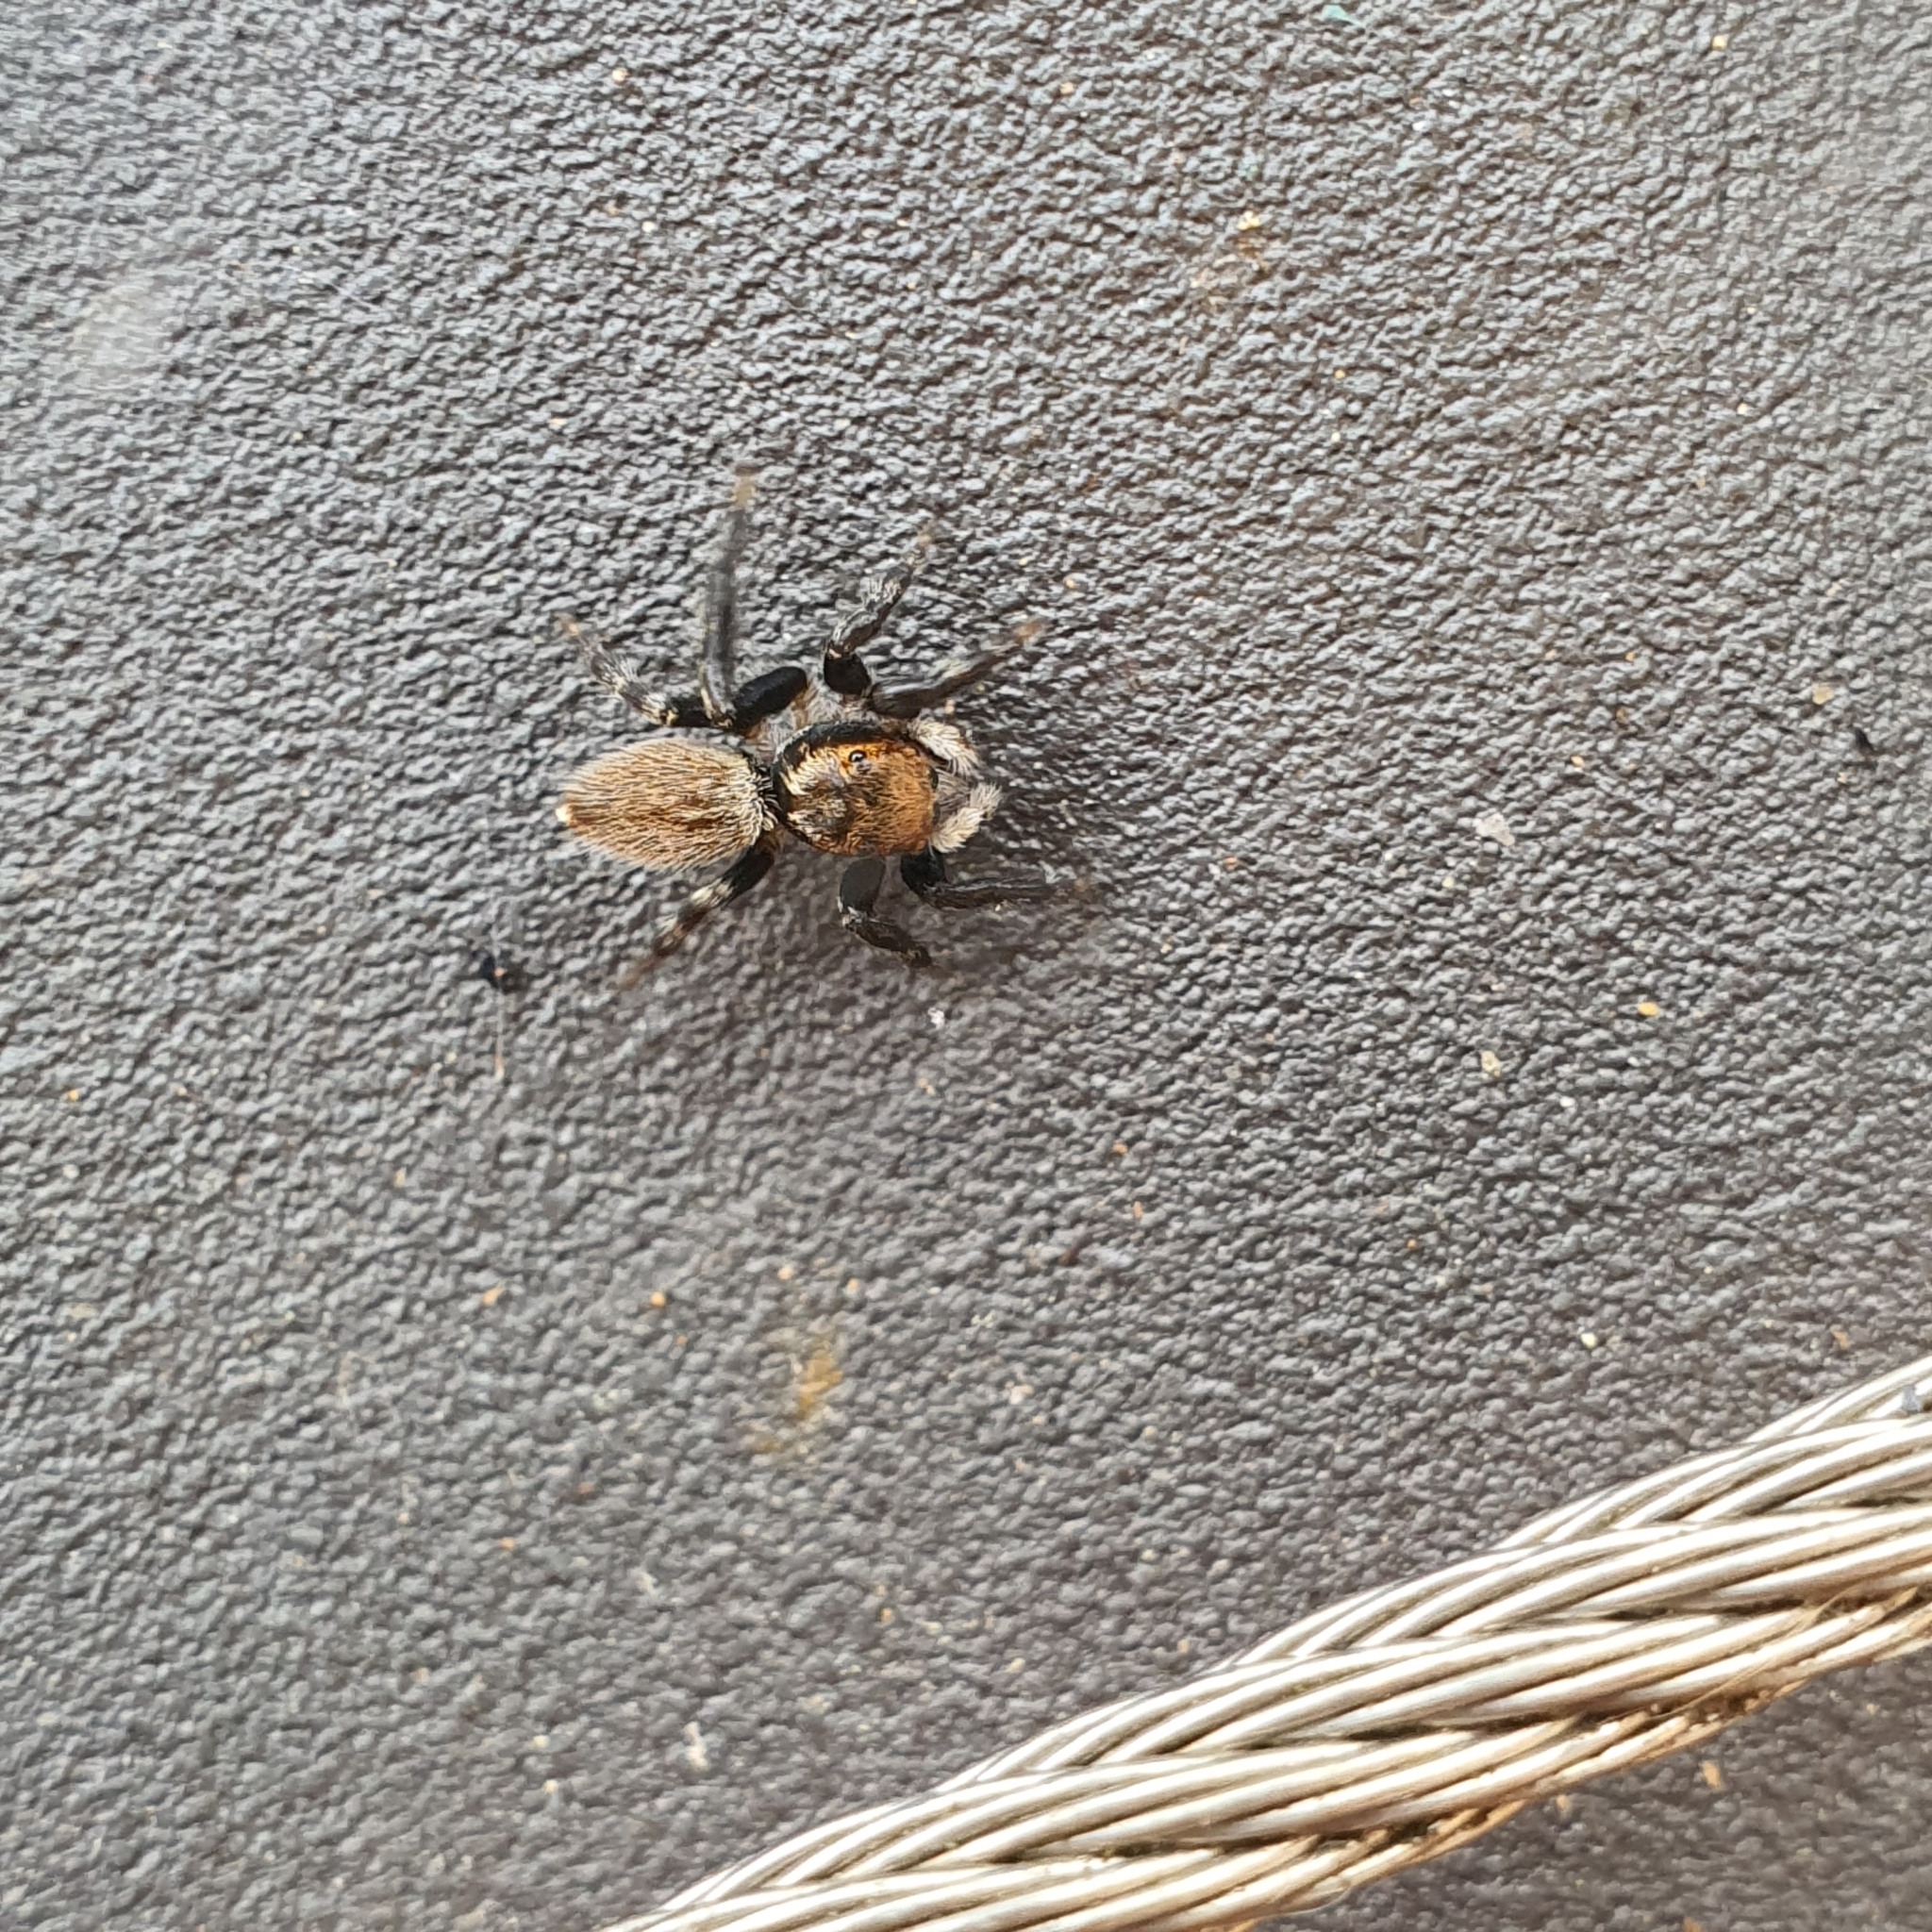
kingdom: Animalia
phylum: Arthropoda
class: Arachnida
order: Araneae
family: Salticidae
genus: Maratus
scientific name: Maratus griseus
